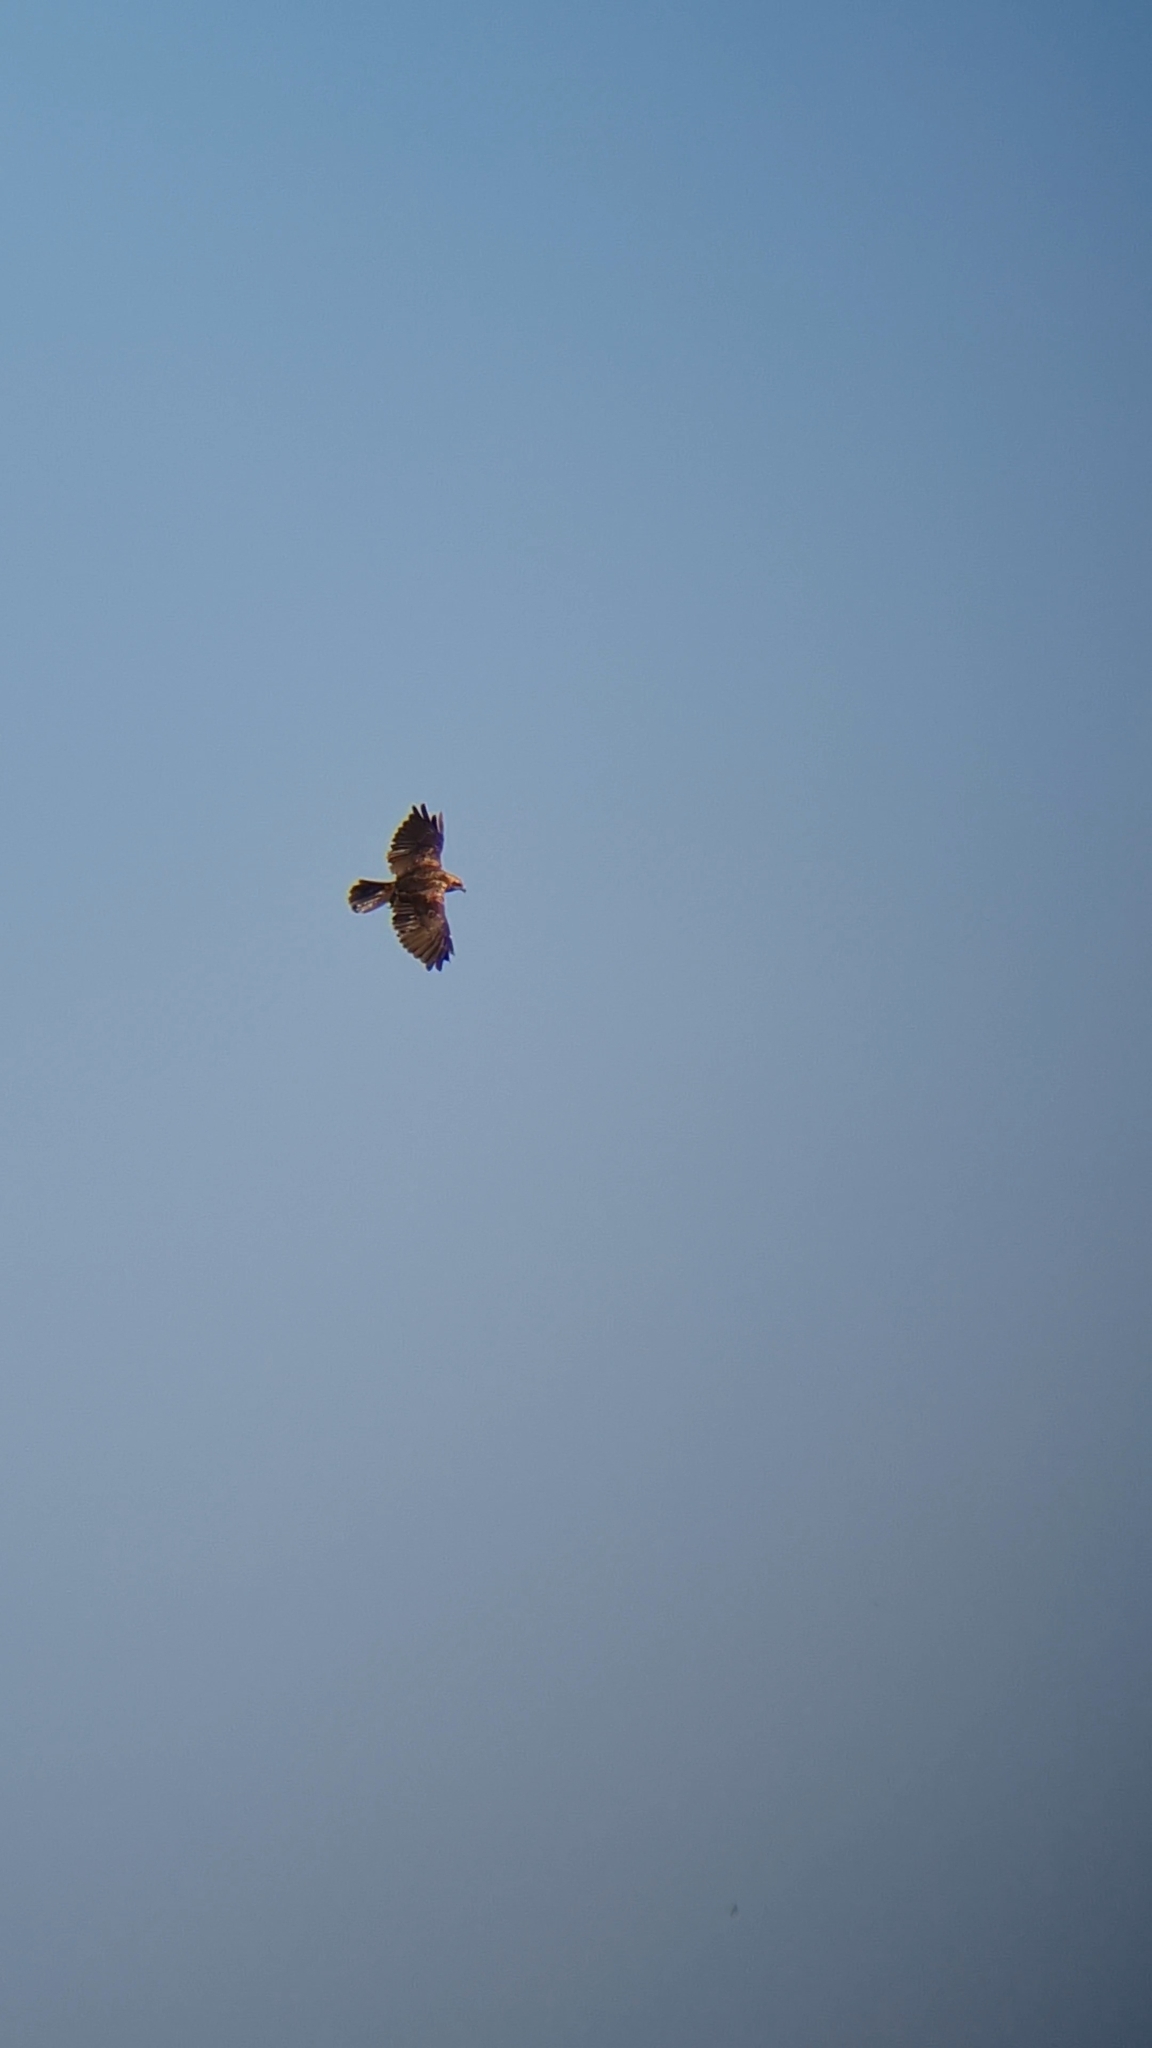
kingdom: Animalia
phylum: Chordata
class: Aves
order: Accipitriformes
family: Accipitridae
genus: Circus
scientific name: Circus aeruginosus
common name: Western marsh harrier
